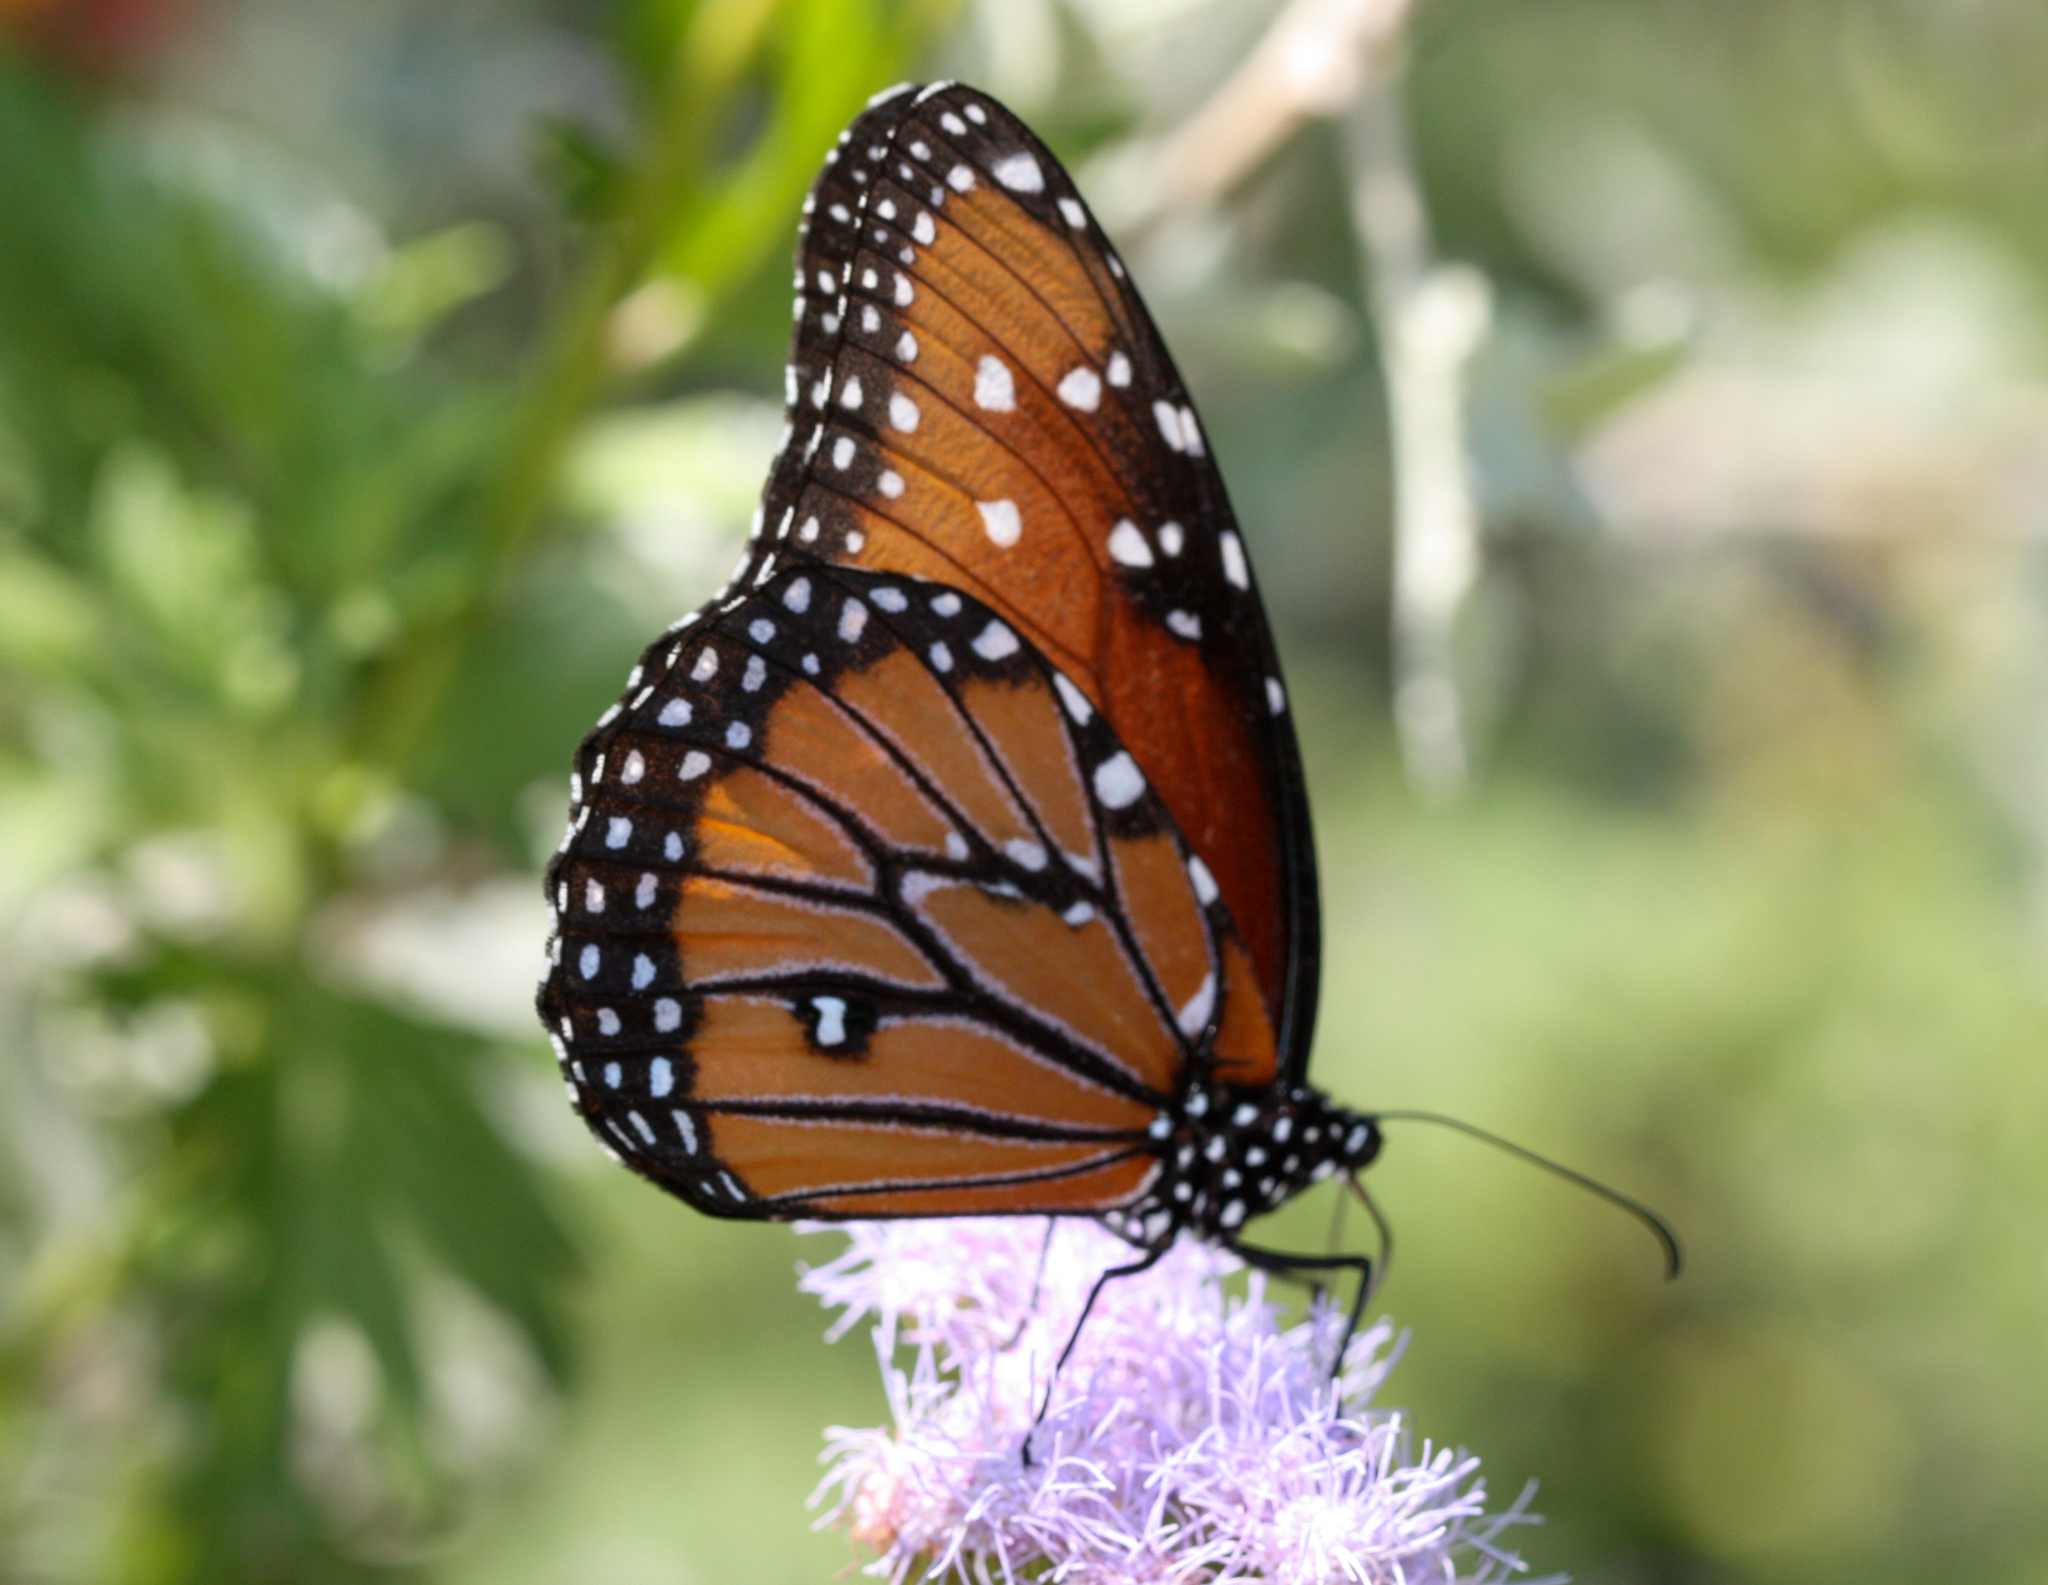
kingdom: Animalia
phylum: Arthropoda
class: Insecta
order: Lepidoptera
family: Nymphalidae
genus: Danaus
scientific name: Danaus gilippus
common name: Queen
